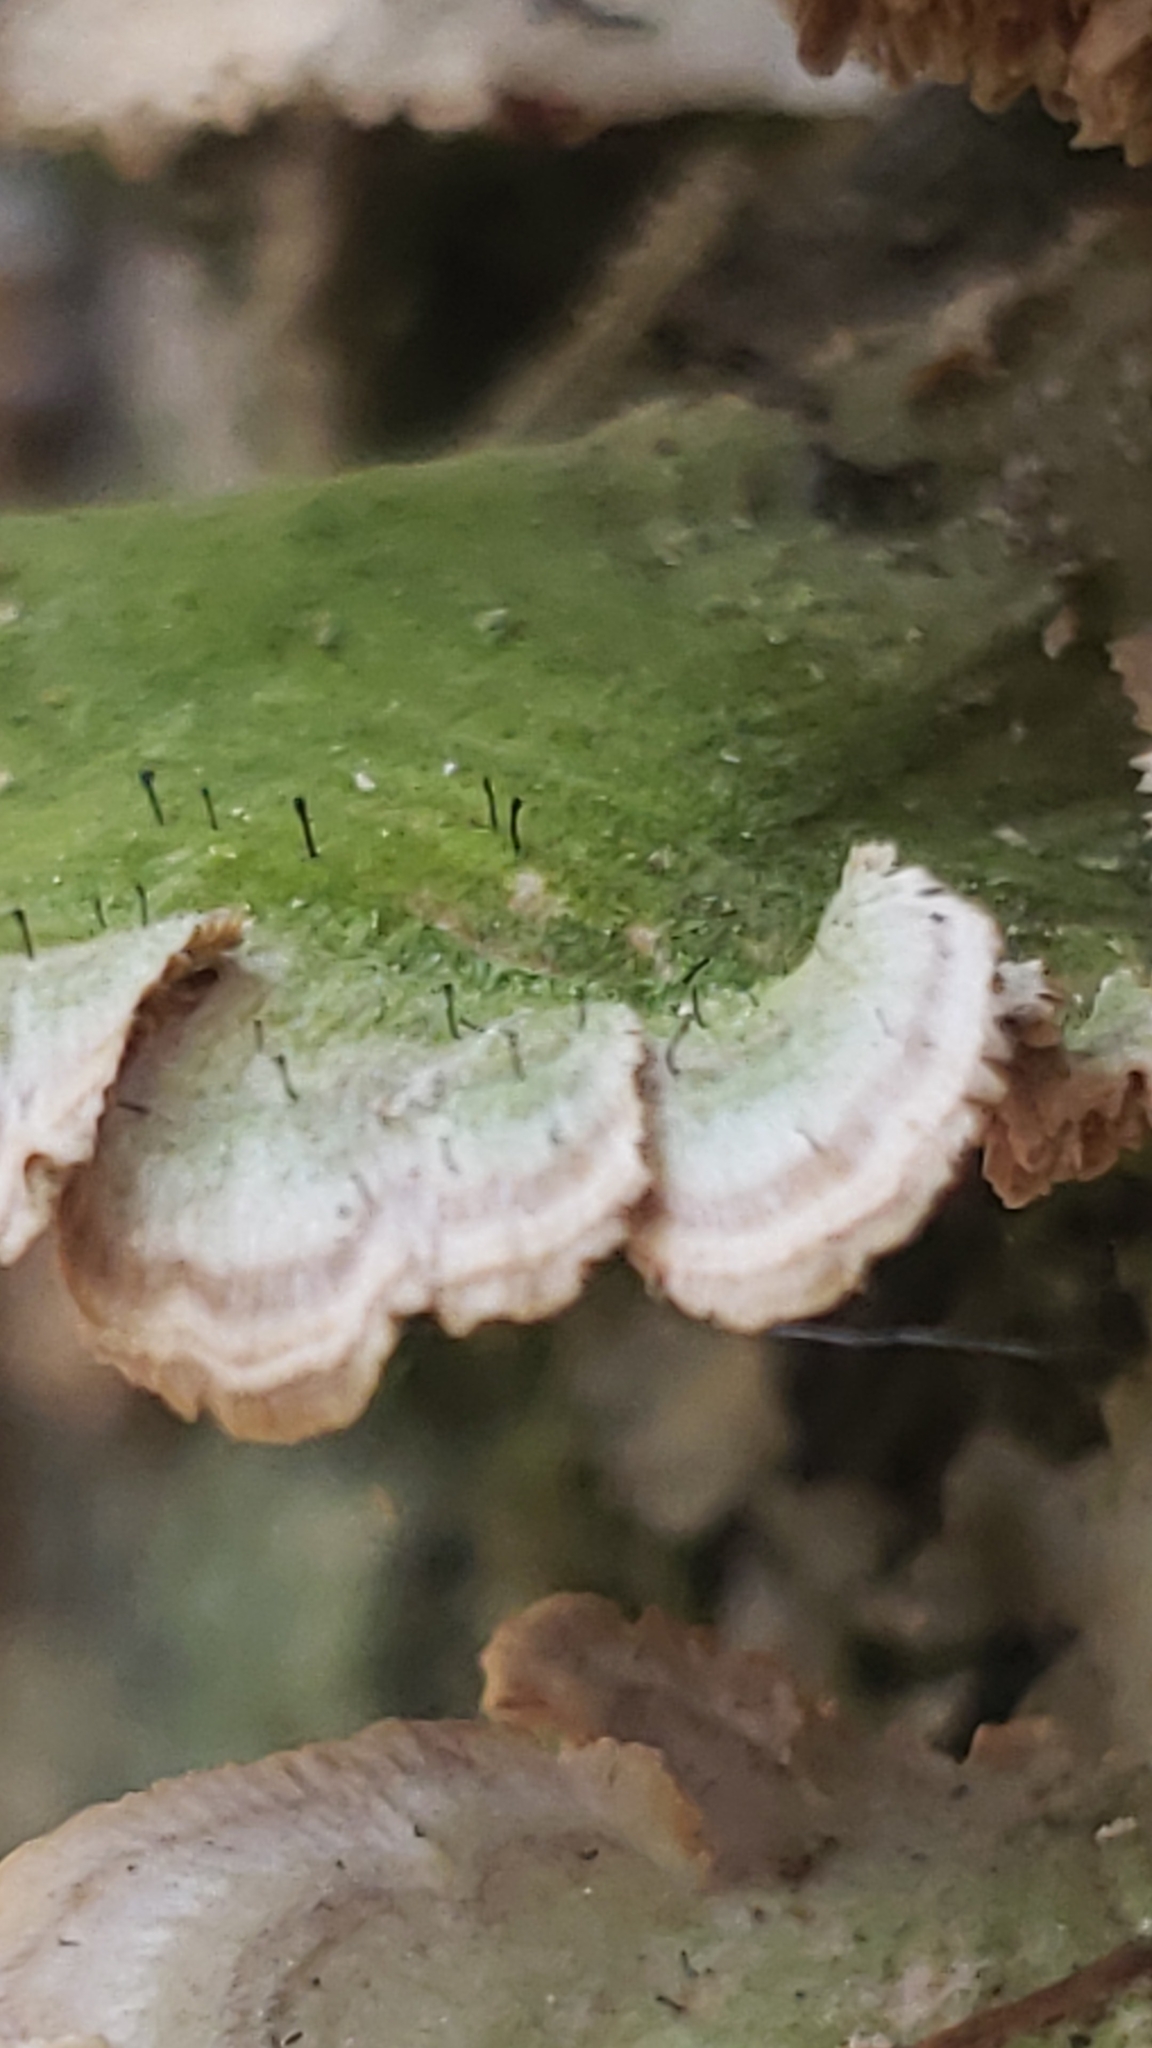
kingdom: Fungi
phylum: Ascomycota
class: Eurotiomycetes
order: Mycocaliciales
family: Mycocaliciaceae
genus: Phaeocalicium
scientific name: Phaeocalicium polyporaeum
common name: Fairy pins
